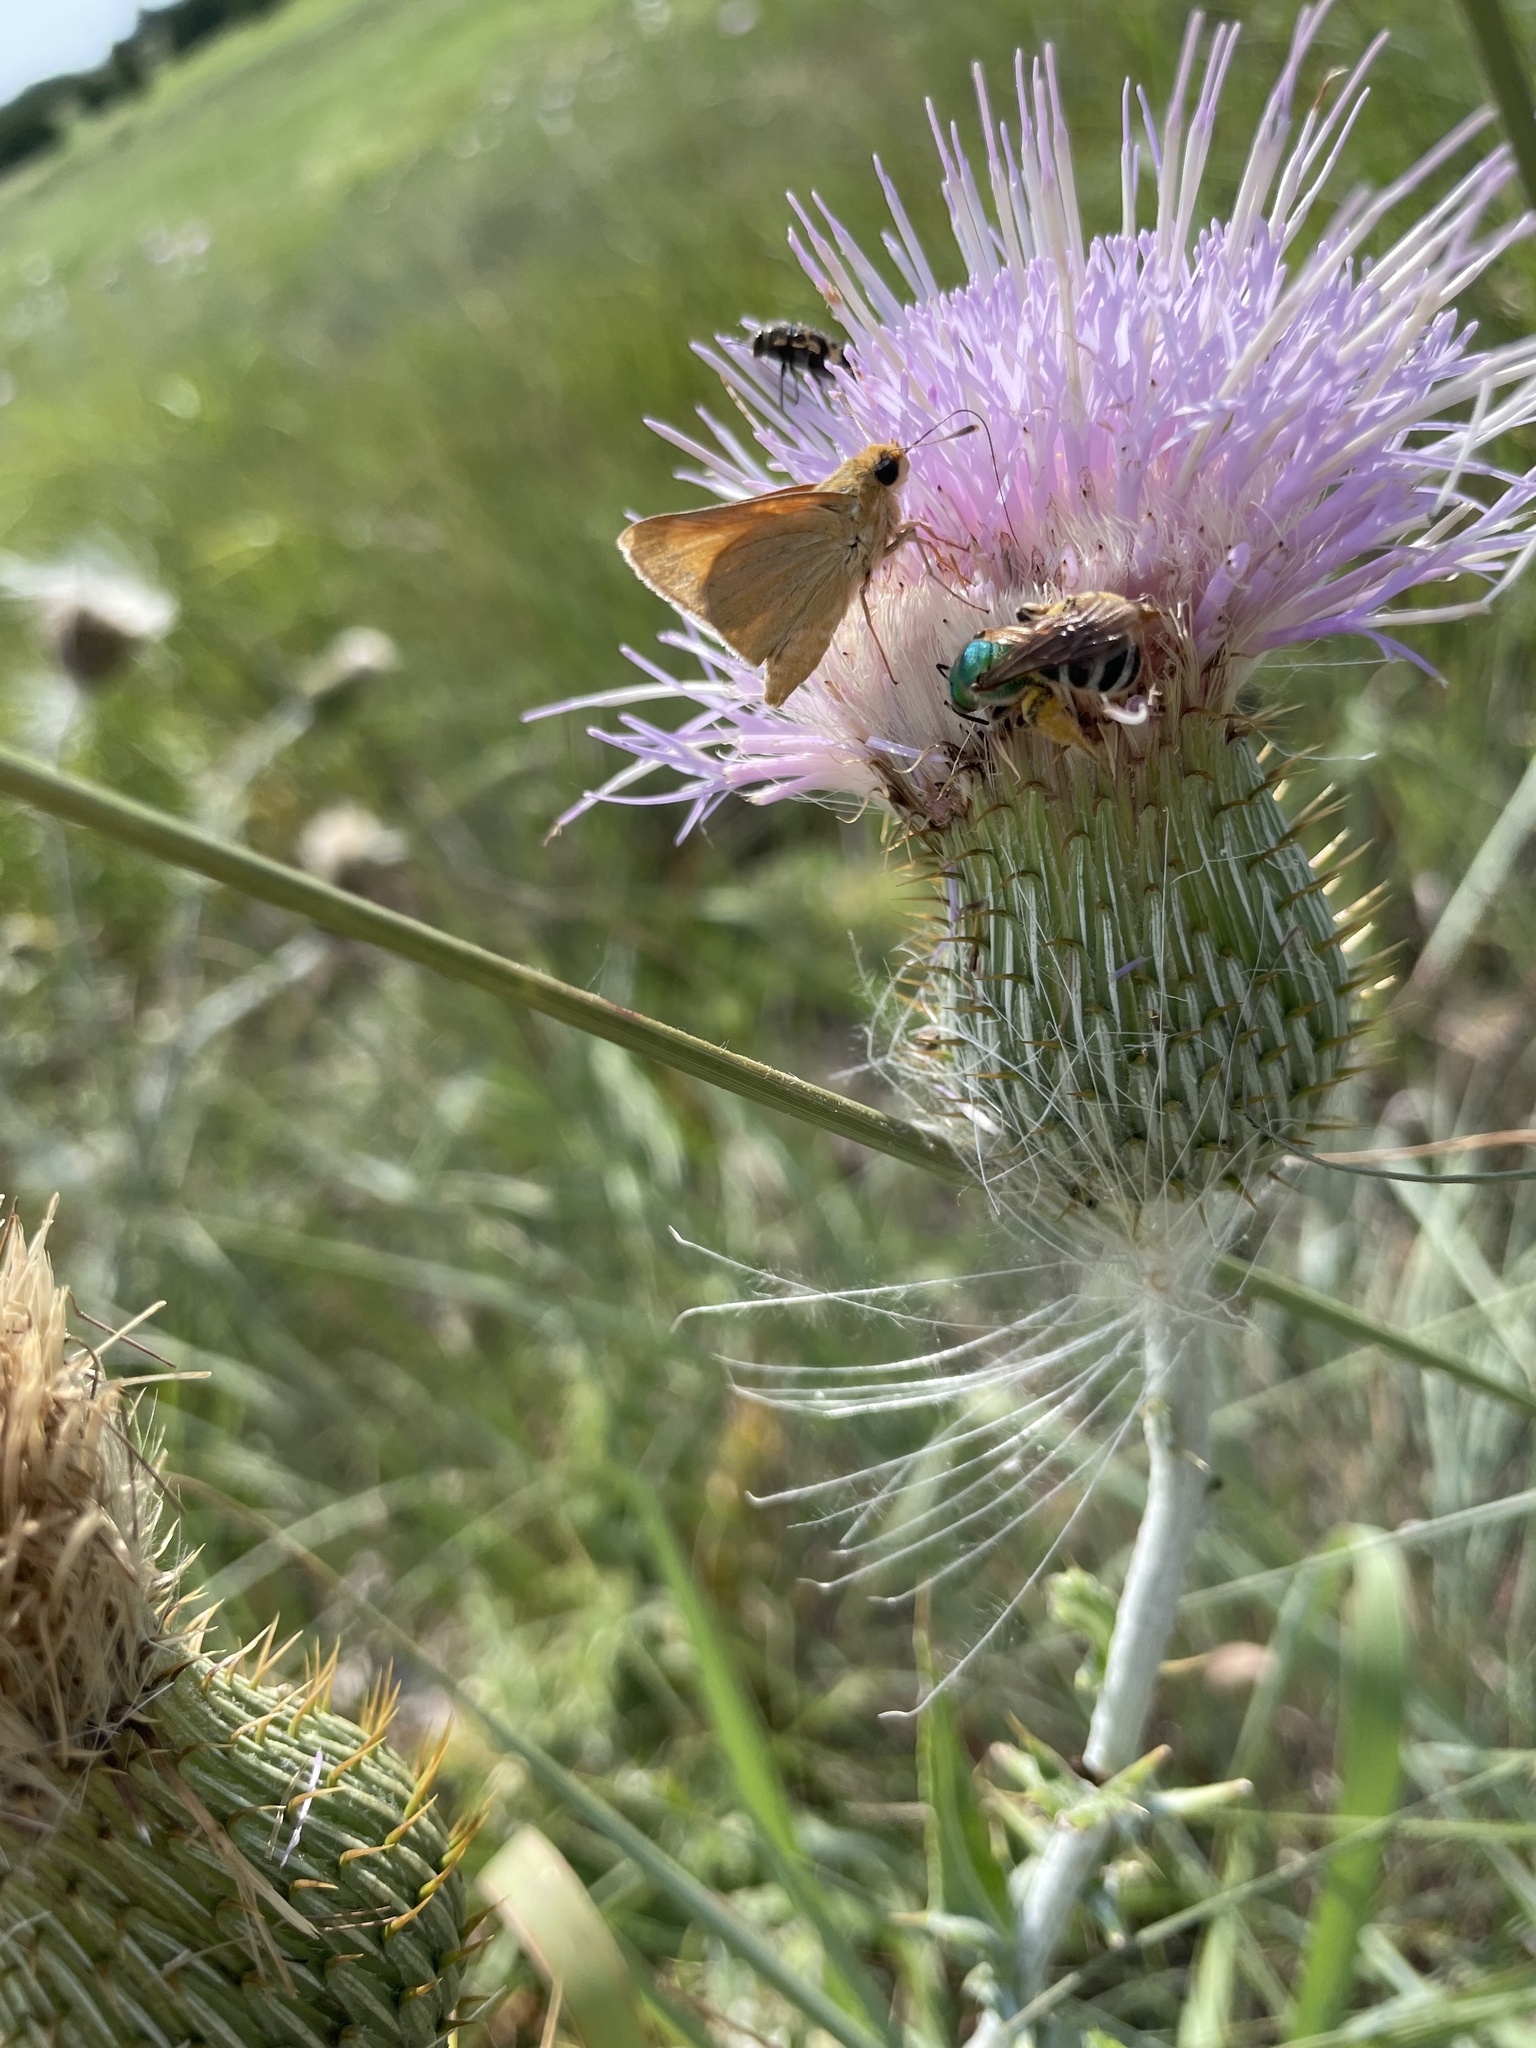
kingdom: Animalia
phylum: Arthropoda
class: Insecta
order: Hymenoptera
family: Halictidae
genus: Agapostemon
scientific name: Agapostemon virescens
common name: Bicolored striped sweat bee
